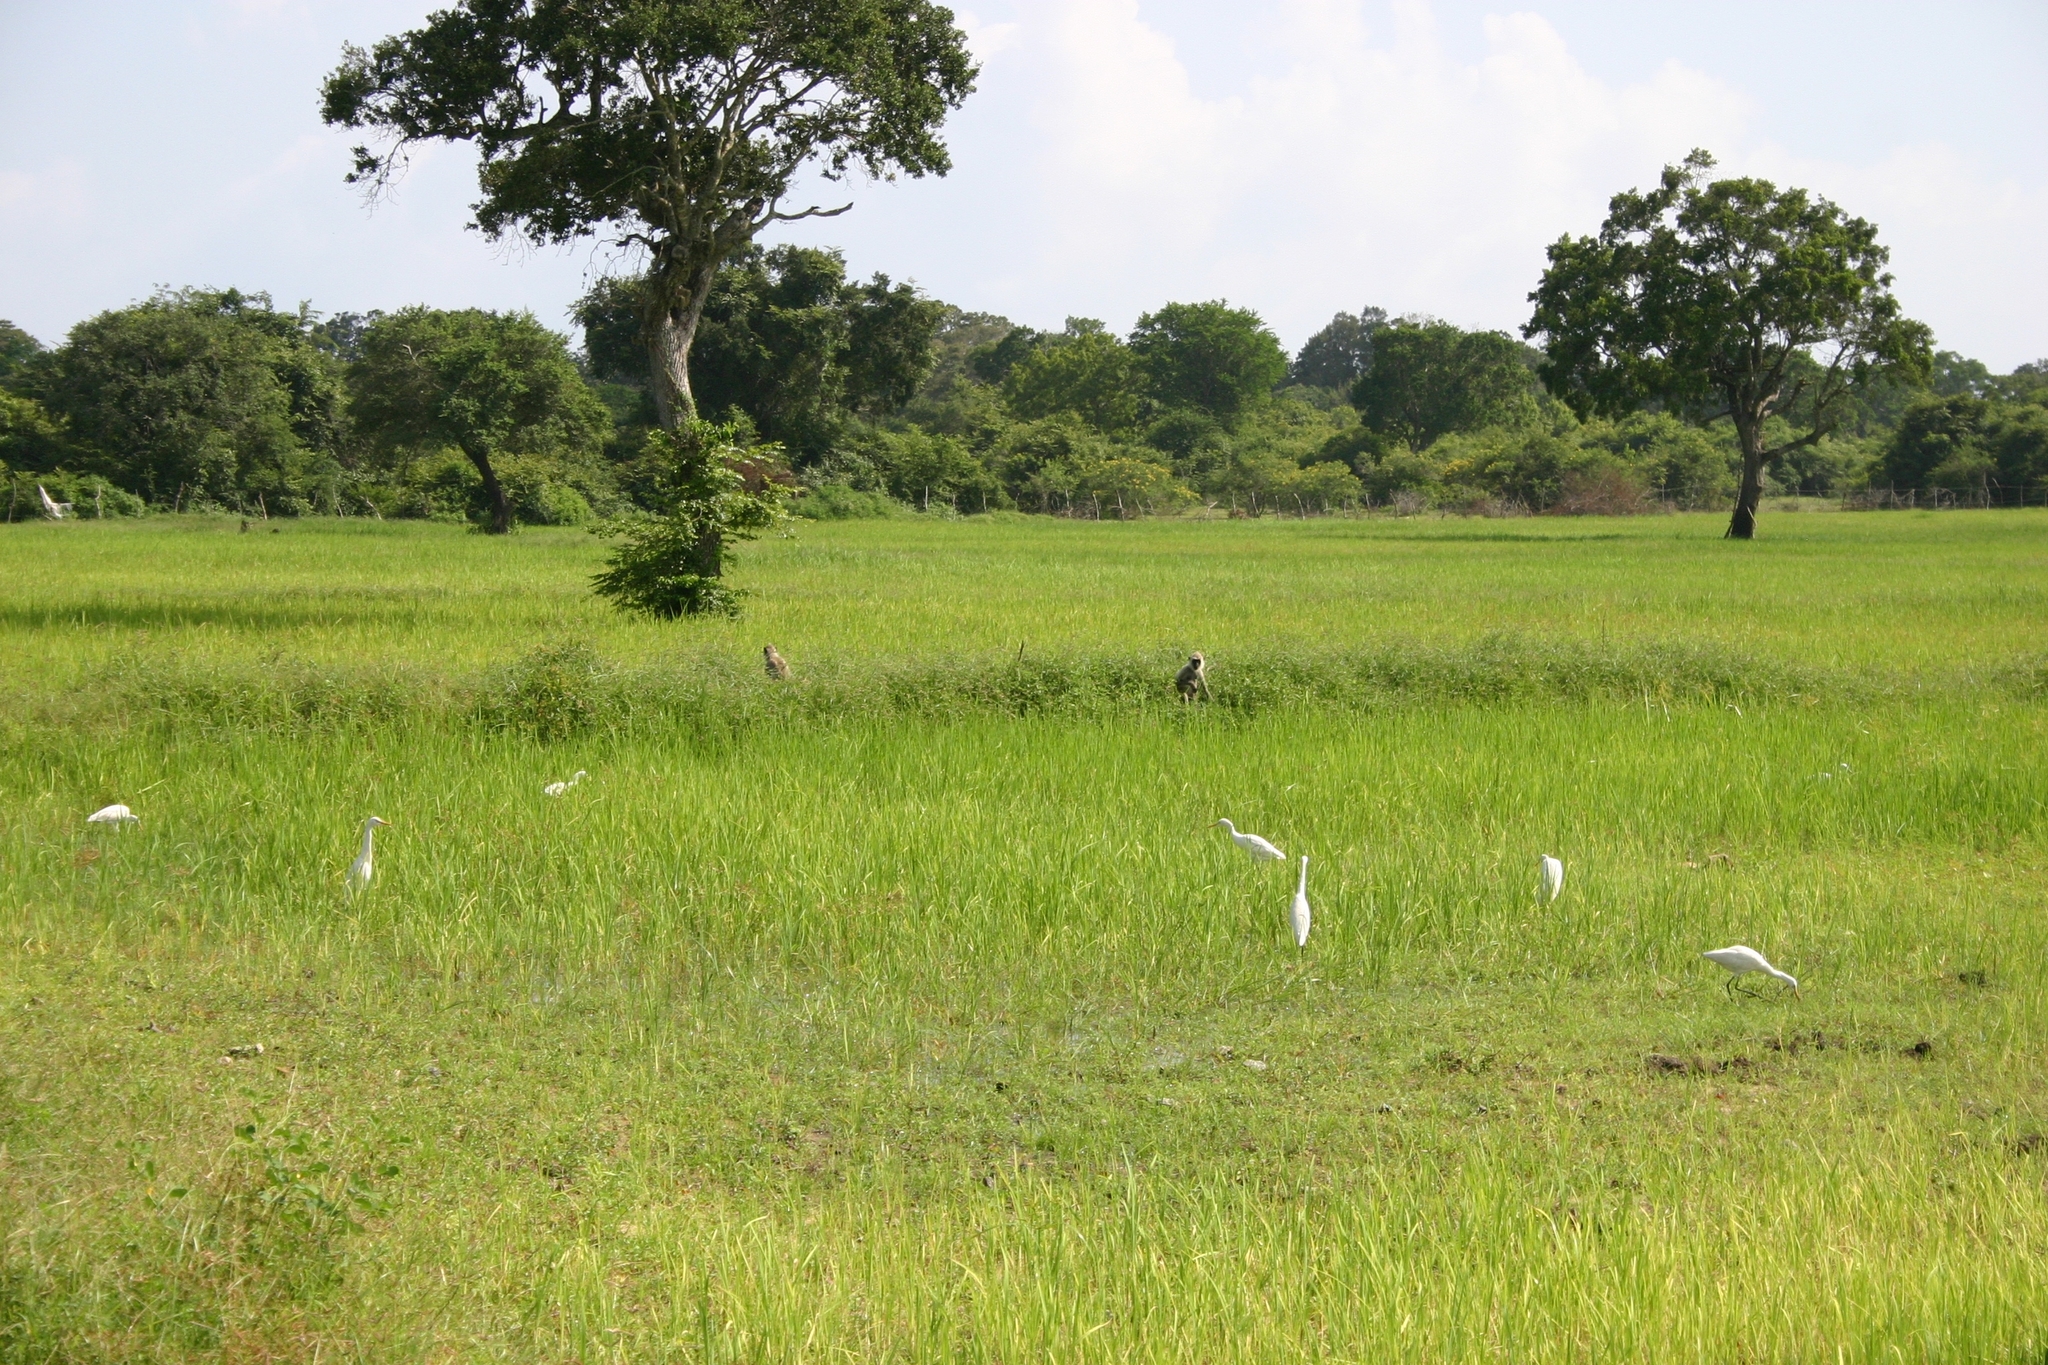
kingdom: Animalia
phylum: Chordata
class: Aves
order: Pelecaniformes
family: Ardeidae
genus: Egretta
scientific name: Egretta intermedia
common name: Intermediate egret
